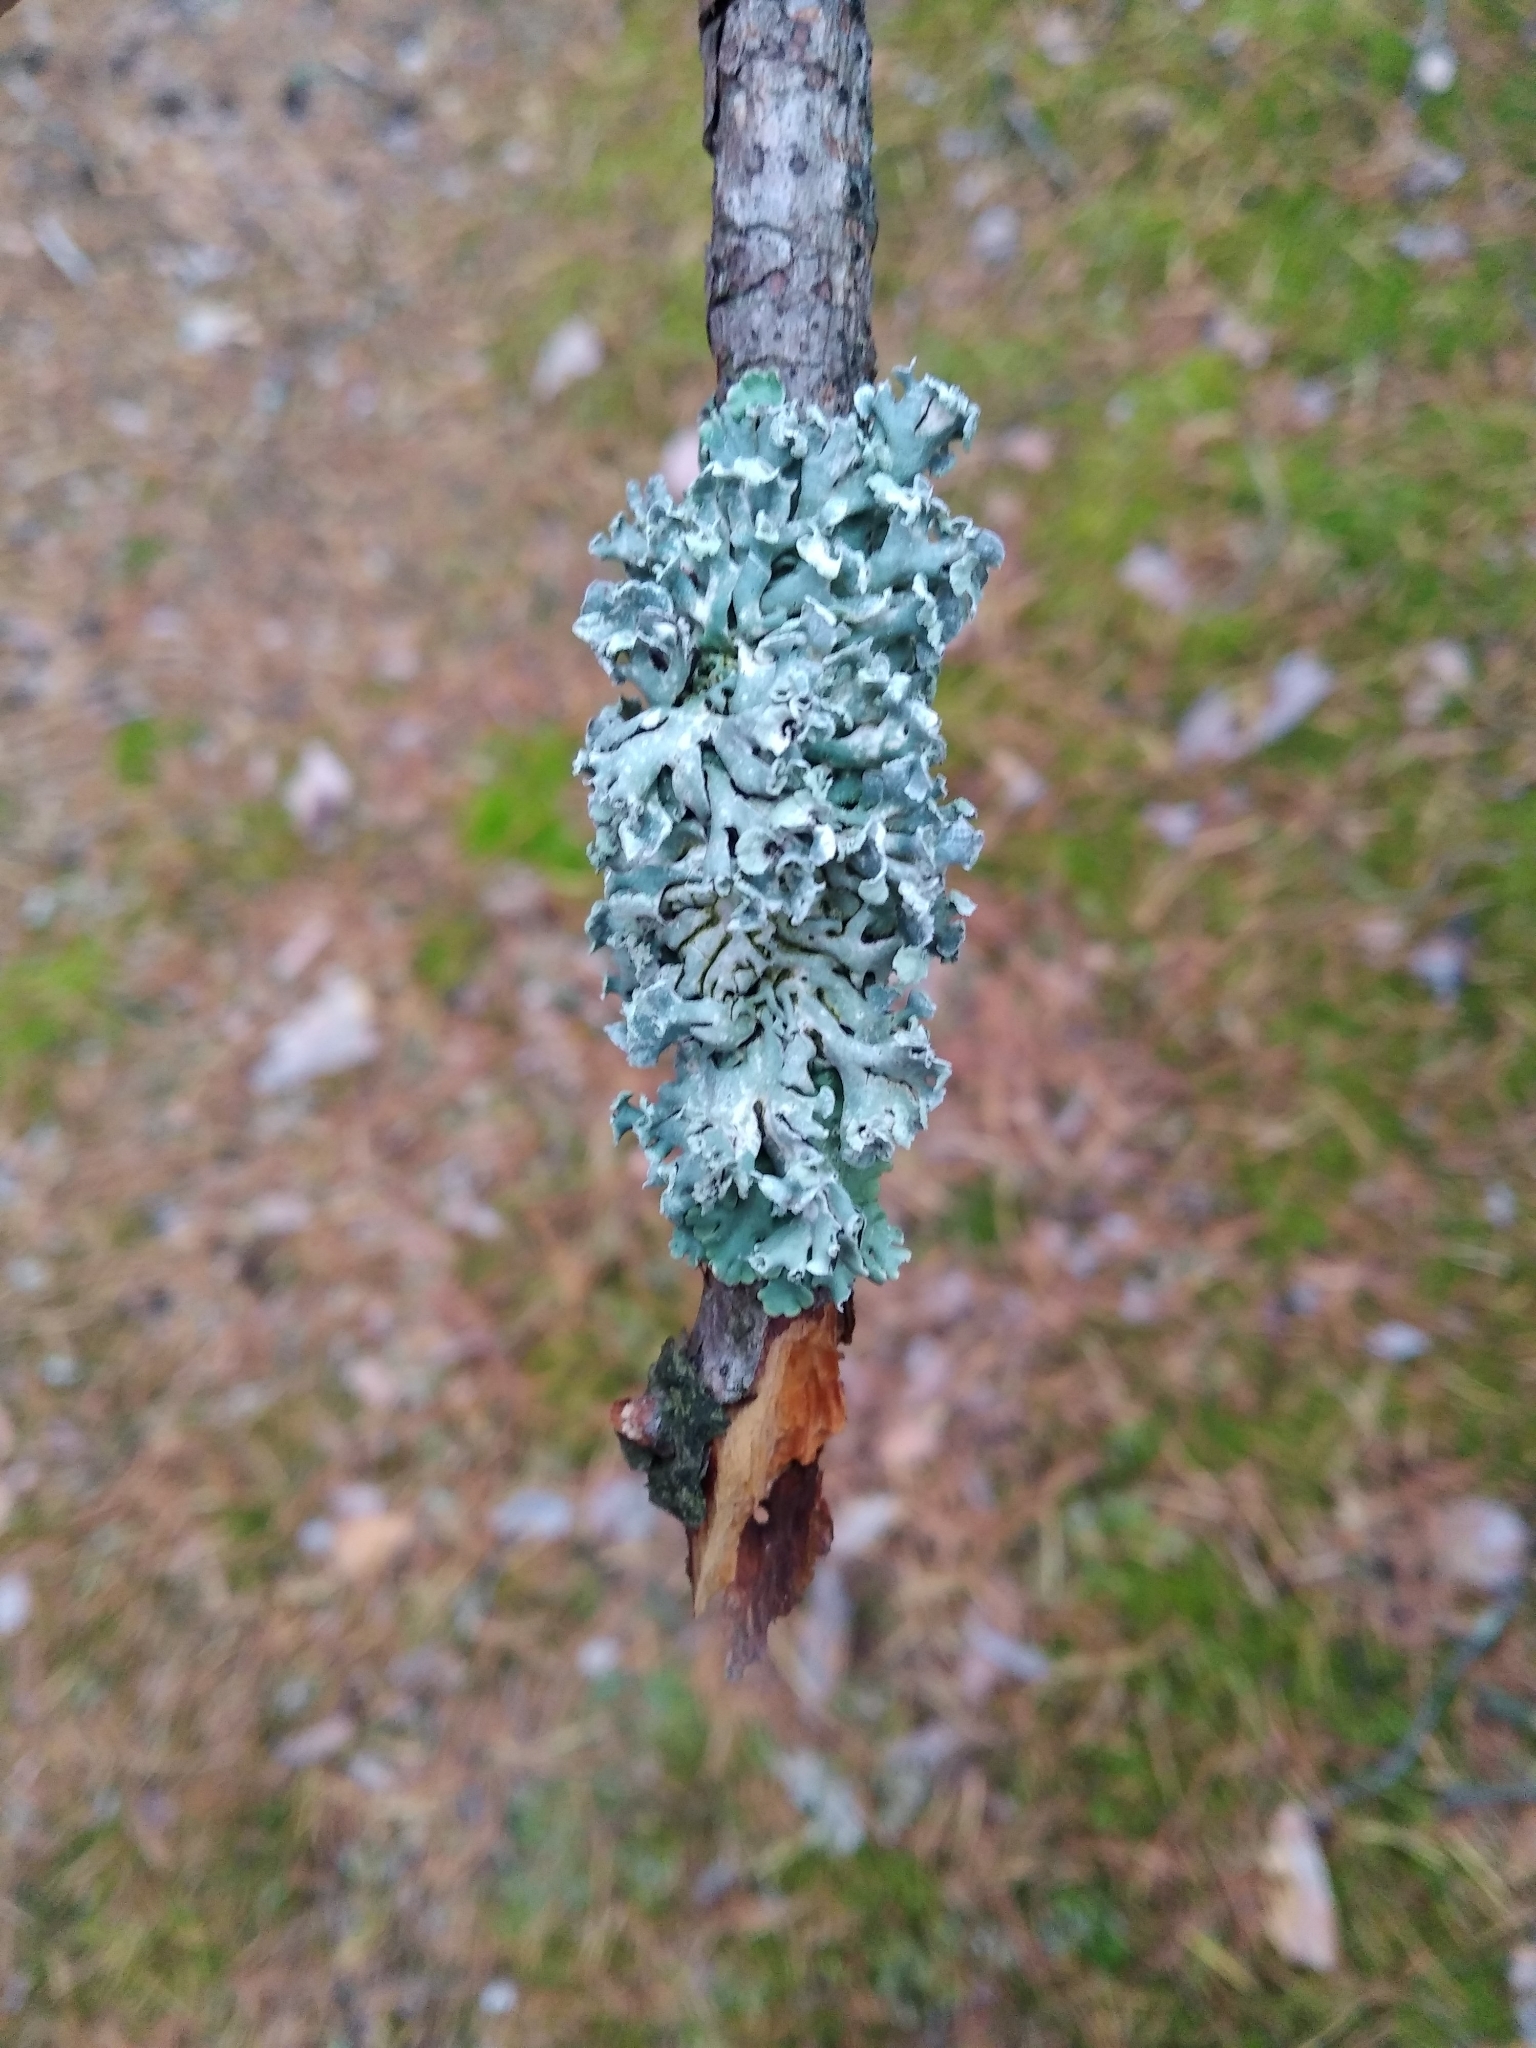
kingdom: Fungi
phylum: Ascomycota
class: Lecanoromycetes
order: Lecanorales
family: Parmeliaceae
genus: Hypogymnia
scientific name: Hypogymnia physodes
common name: Dark crottle
